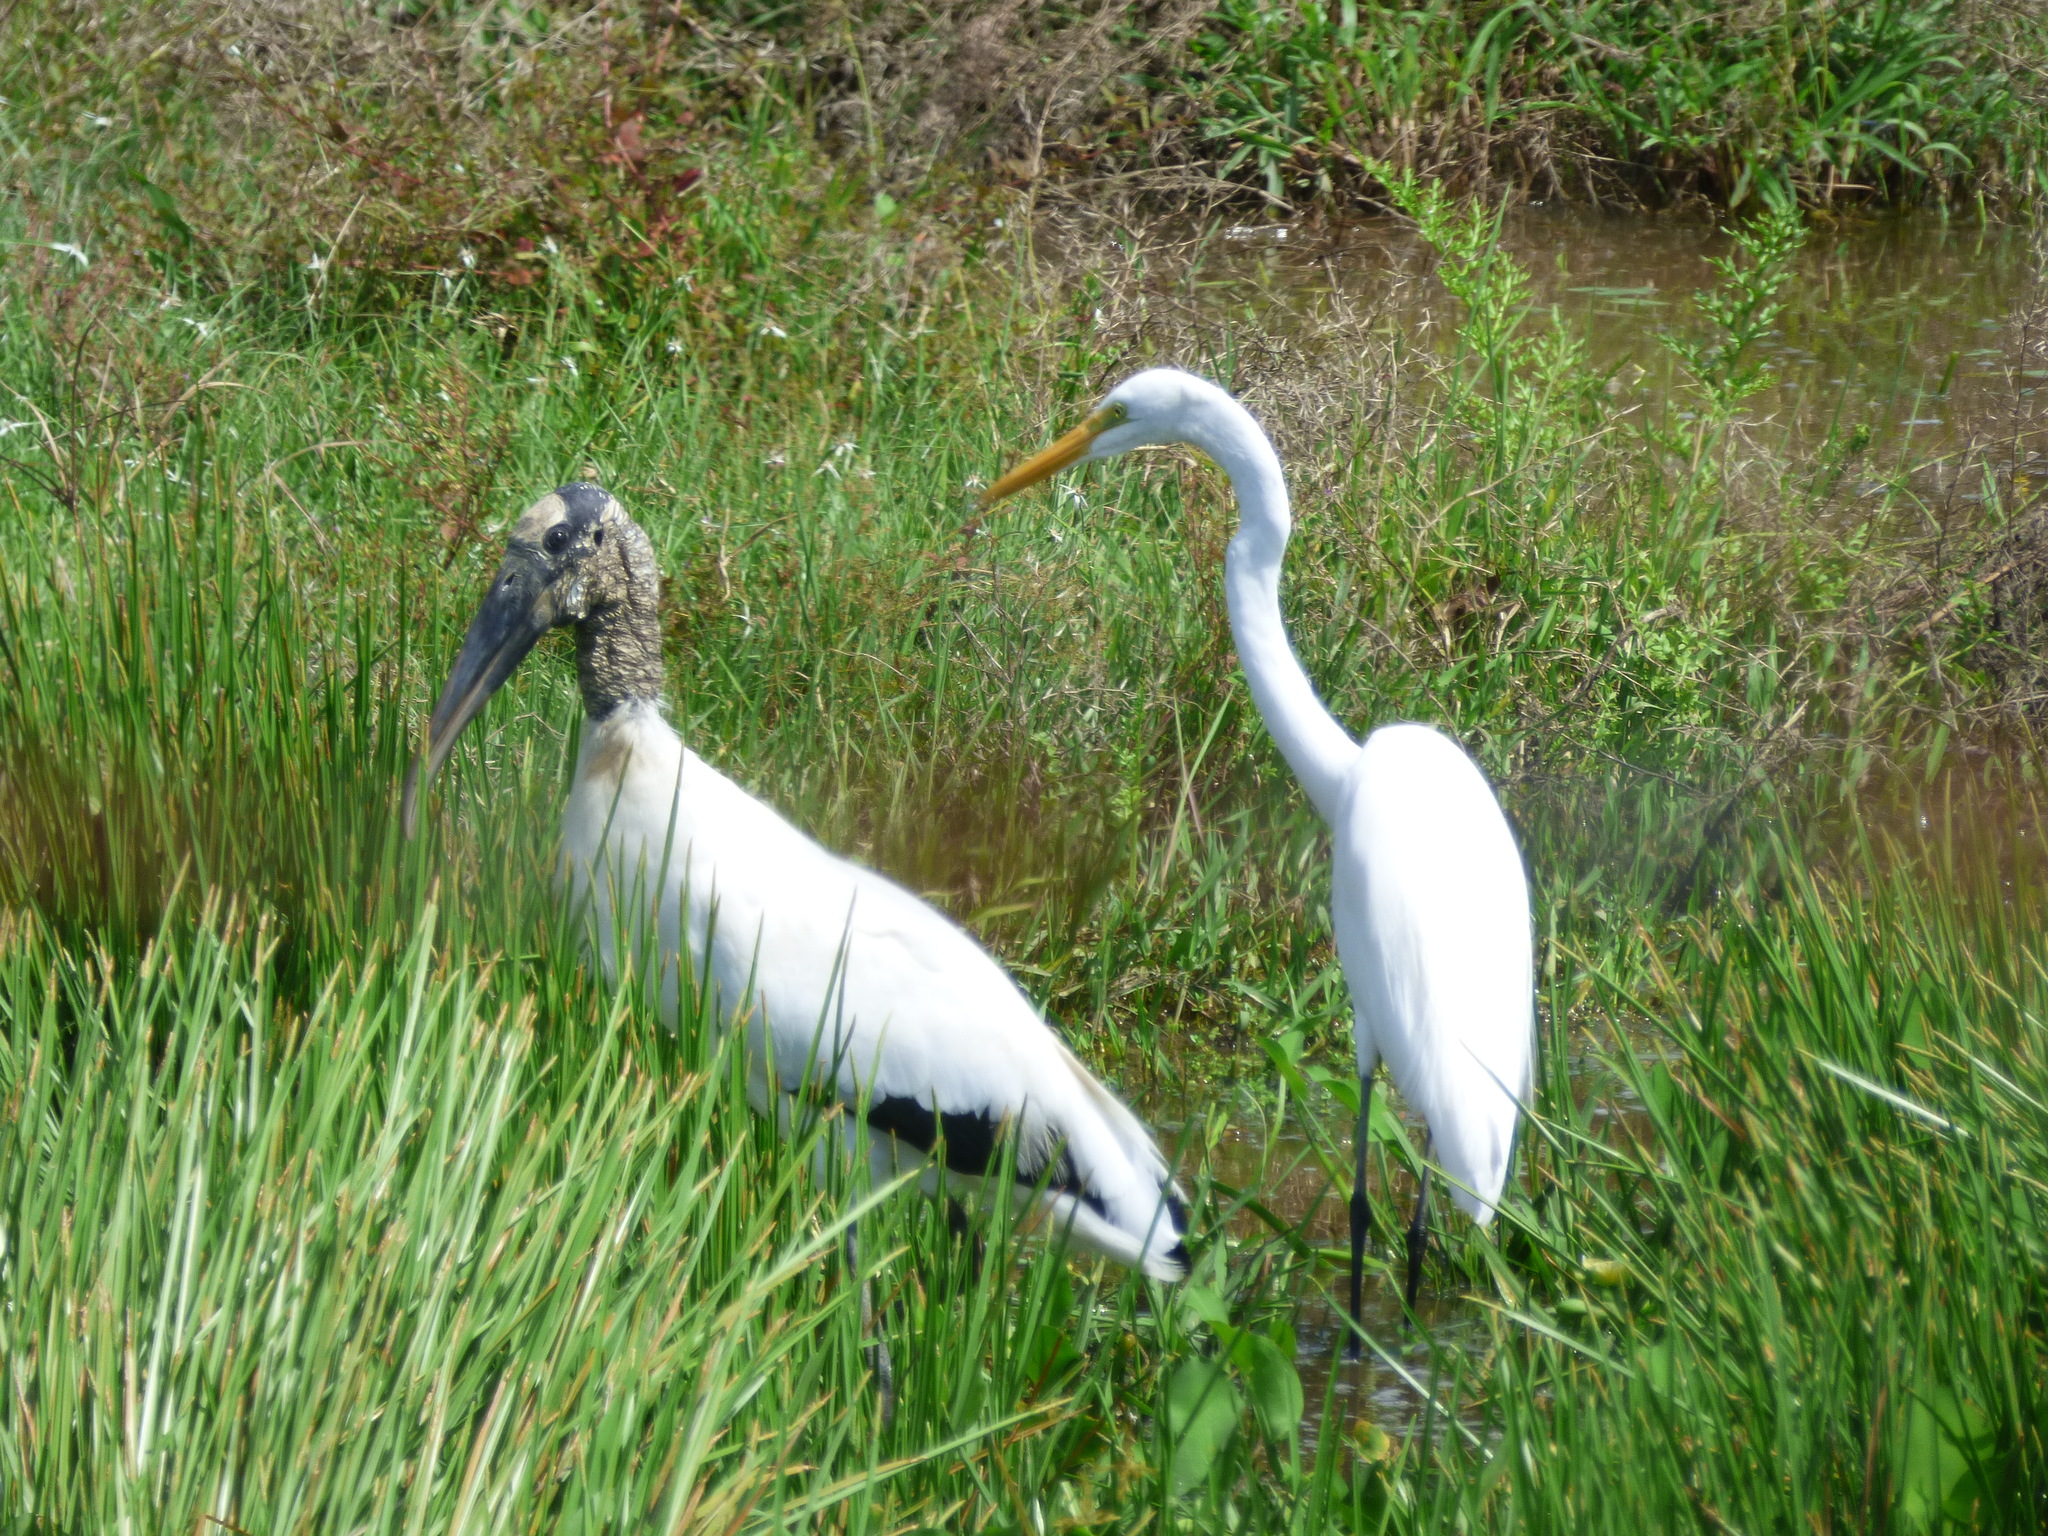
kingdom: Animalia
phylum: Chordata
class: Aves
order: Ciconiiformes
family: Ciconiidae
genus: Mycteria
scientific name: Mycteria americana
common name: Wood stork
